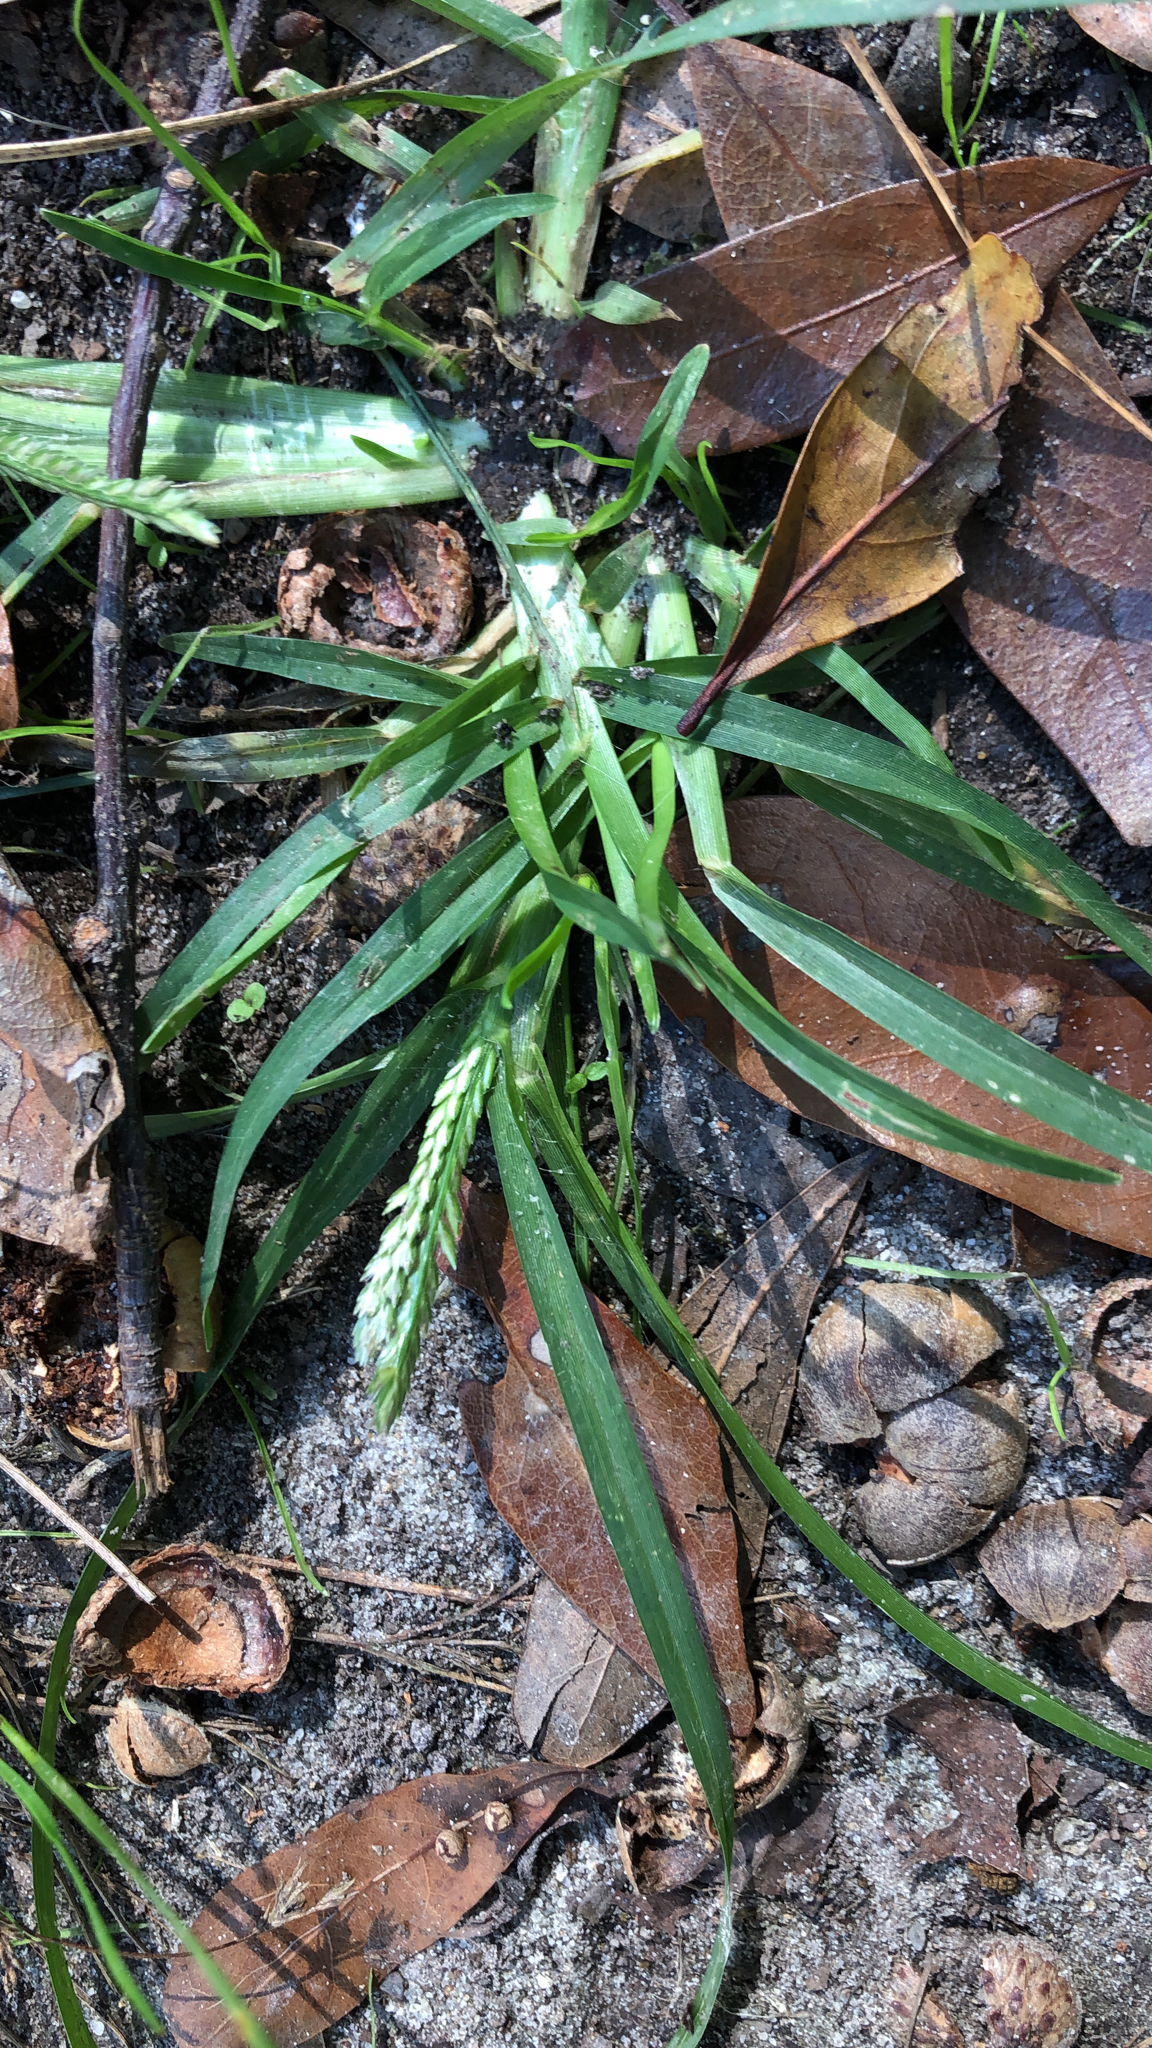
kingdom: Plantae
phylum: Tracheophyta
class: Liliopsida
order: Poales
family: Poaceae
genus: Eleusine
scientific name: Eleusine indica
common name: Yard-grass
